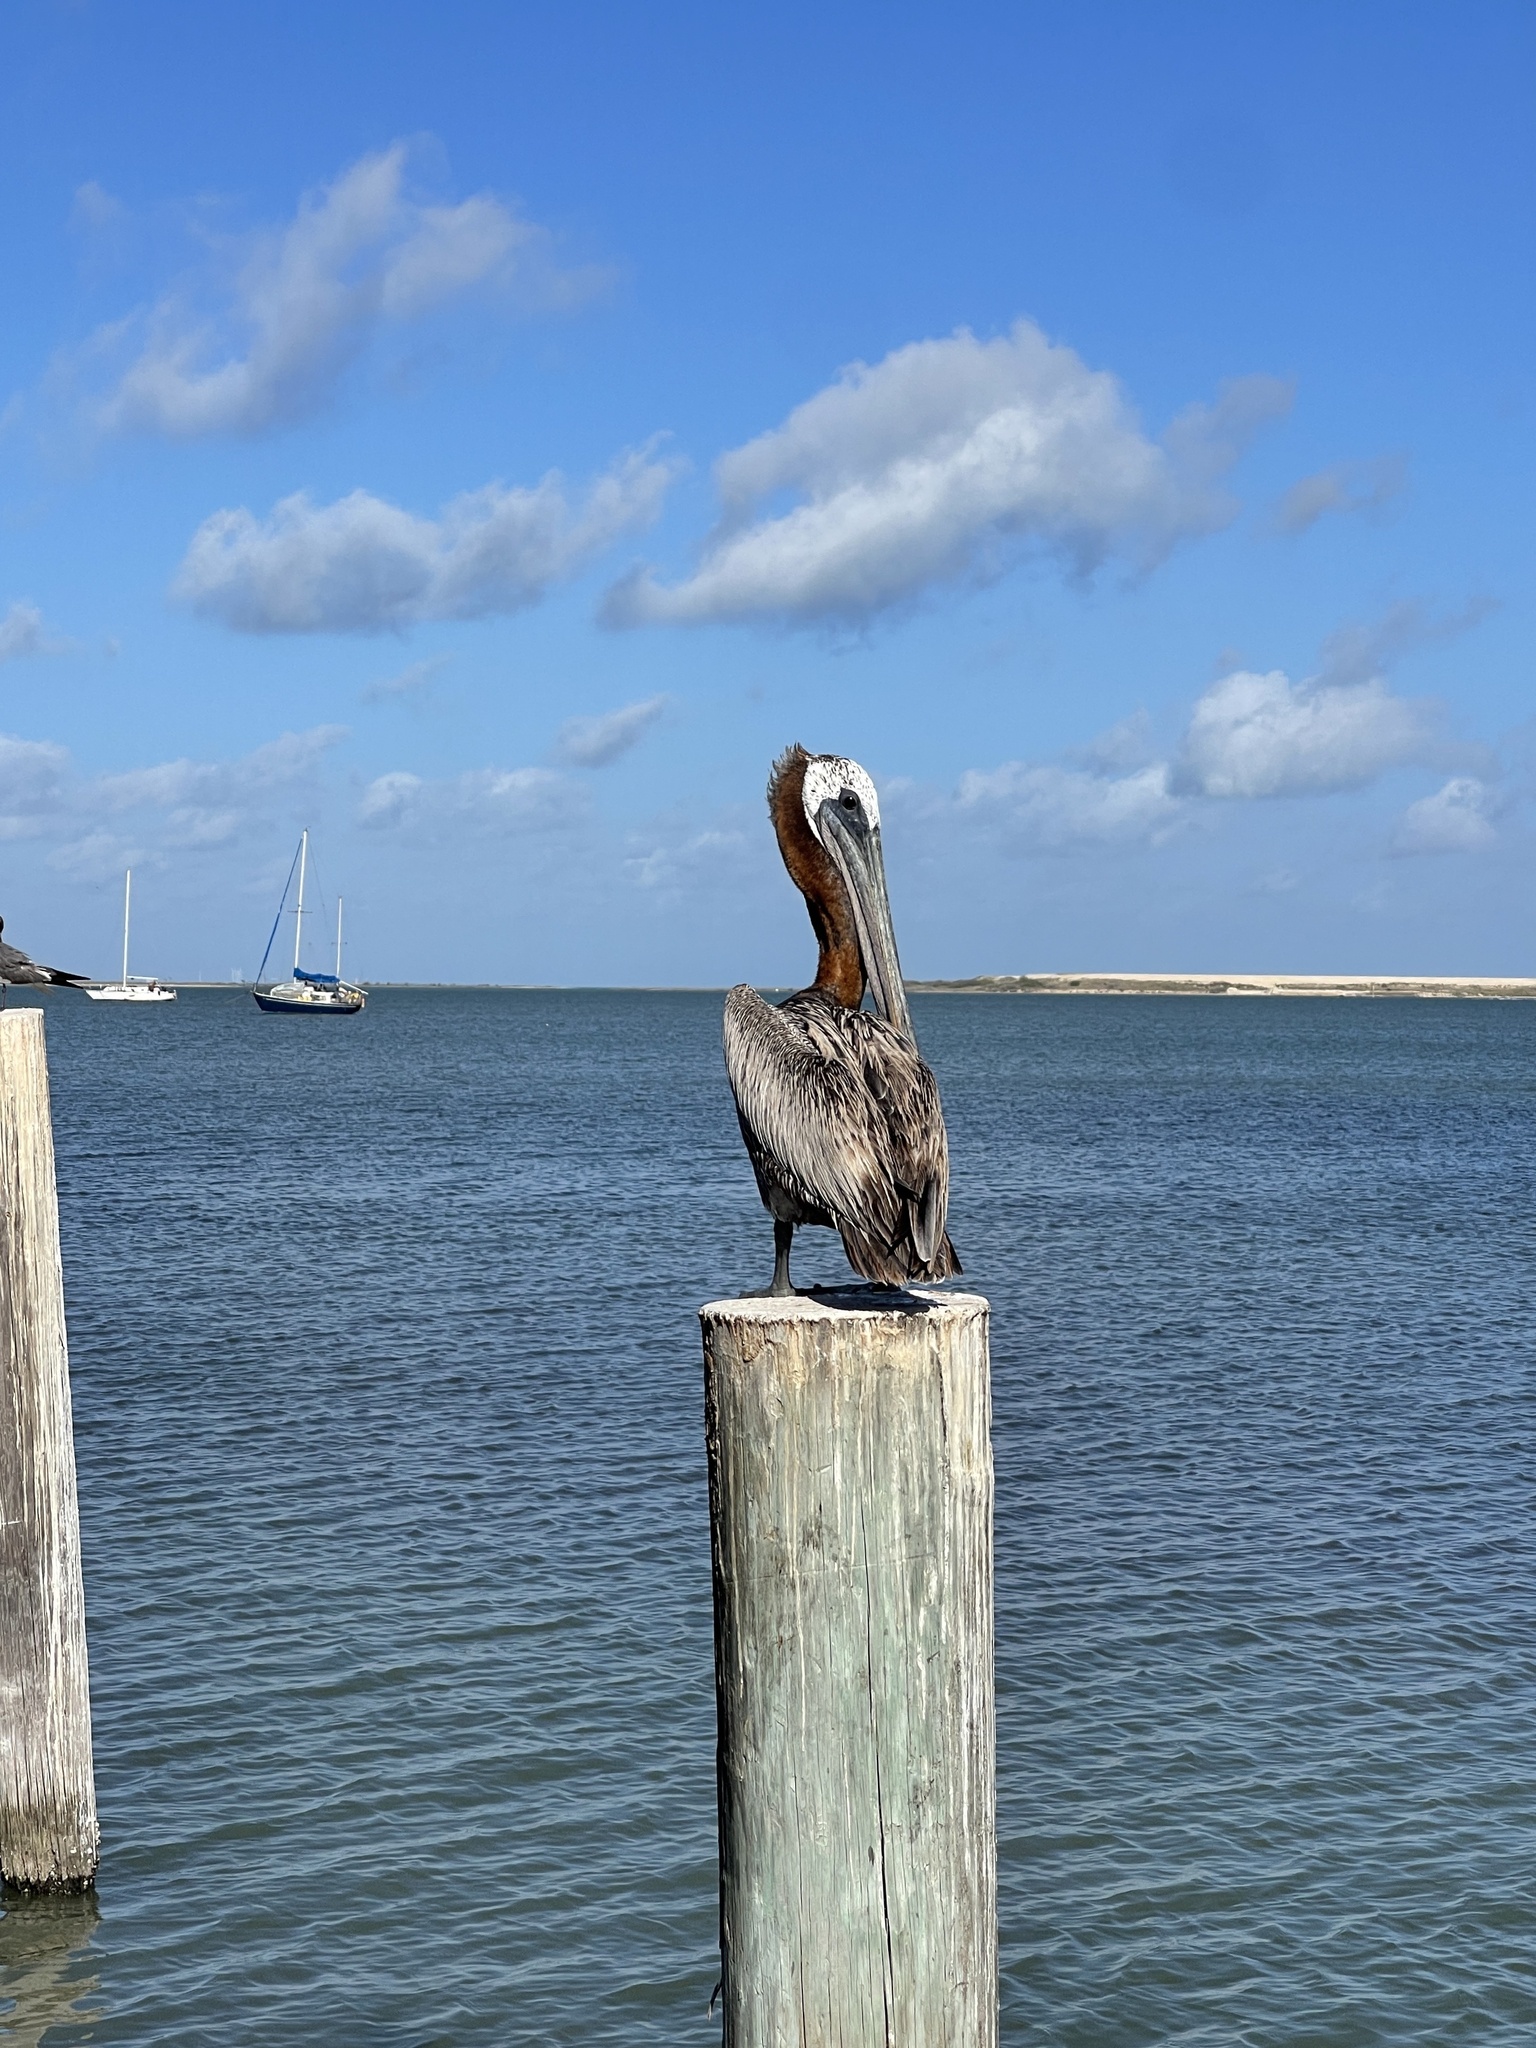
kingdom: Animalia
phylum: Chordata
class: Aves
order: Pelecaniformes
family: Pelecanidae
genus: Pelecanus
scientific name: Pelecanus occidentalis
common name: Brown pelican
